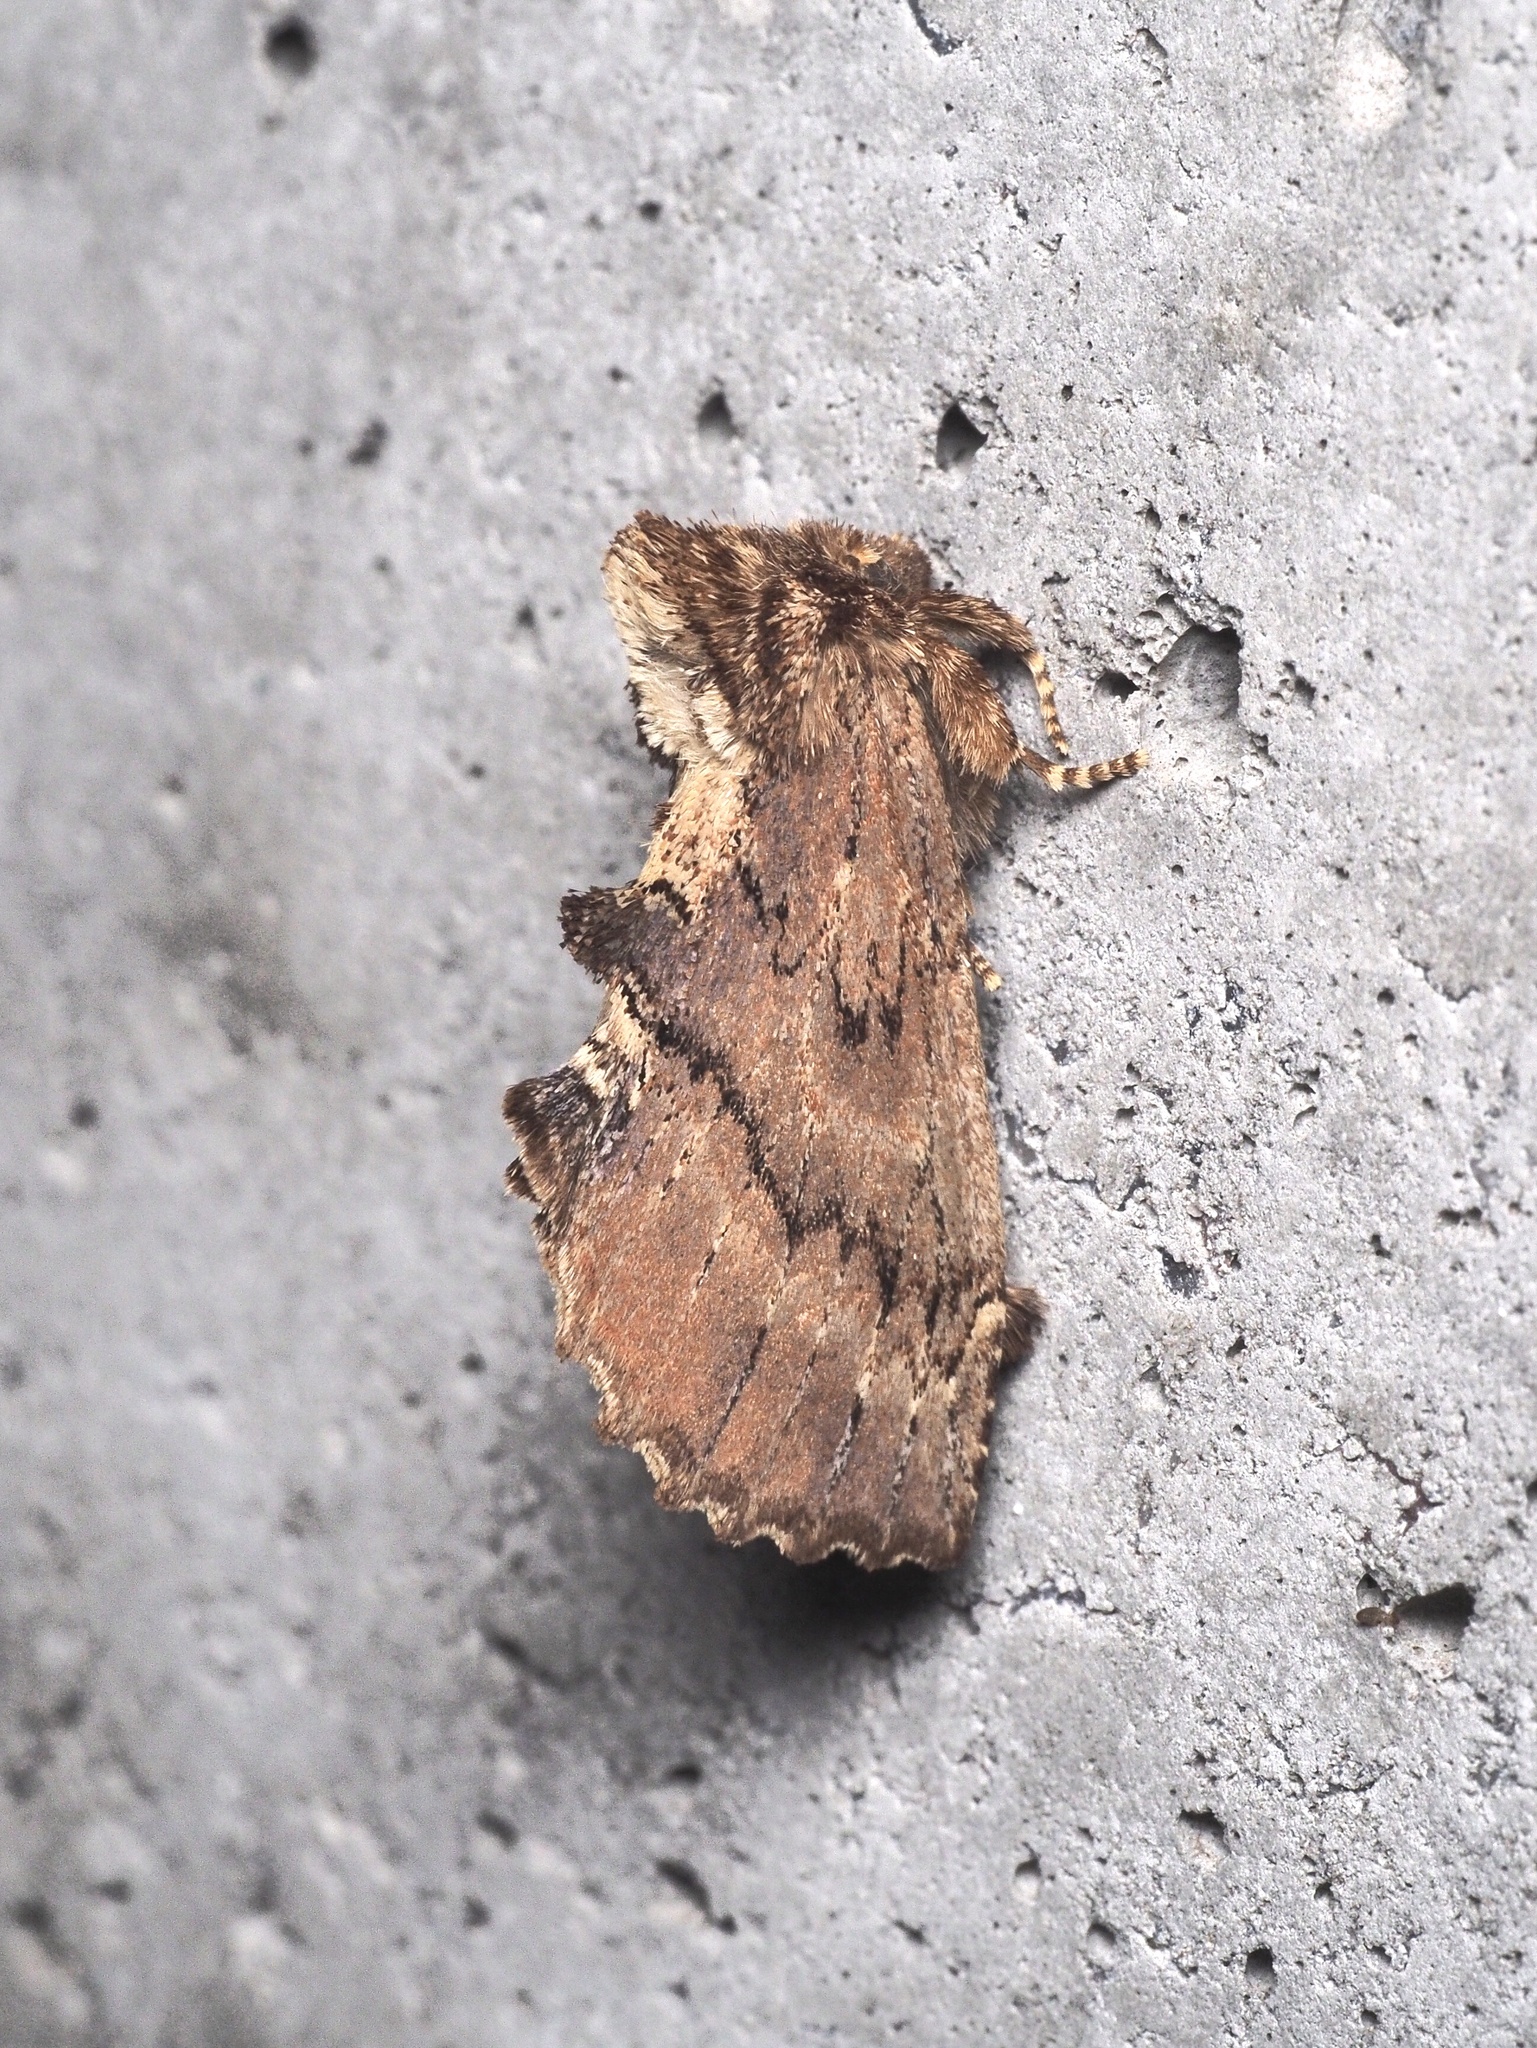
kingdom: Animalia
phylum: Arthropoda
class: Insecta
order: Lepidoptera
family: Notodontidae
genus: Ptilodon
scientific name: Ptilodon capucina
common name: Coxcomb prominent
